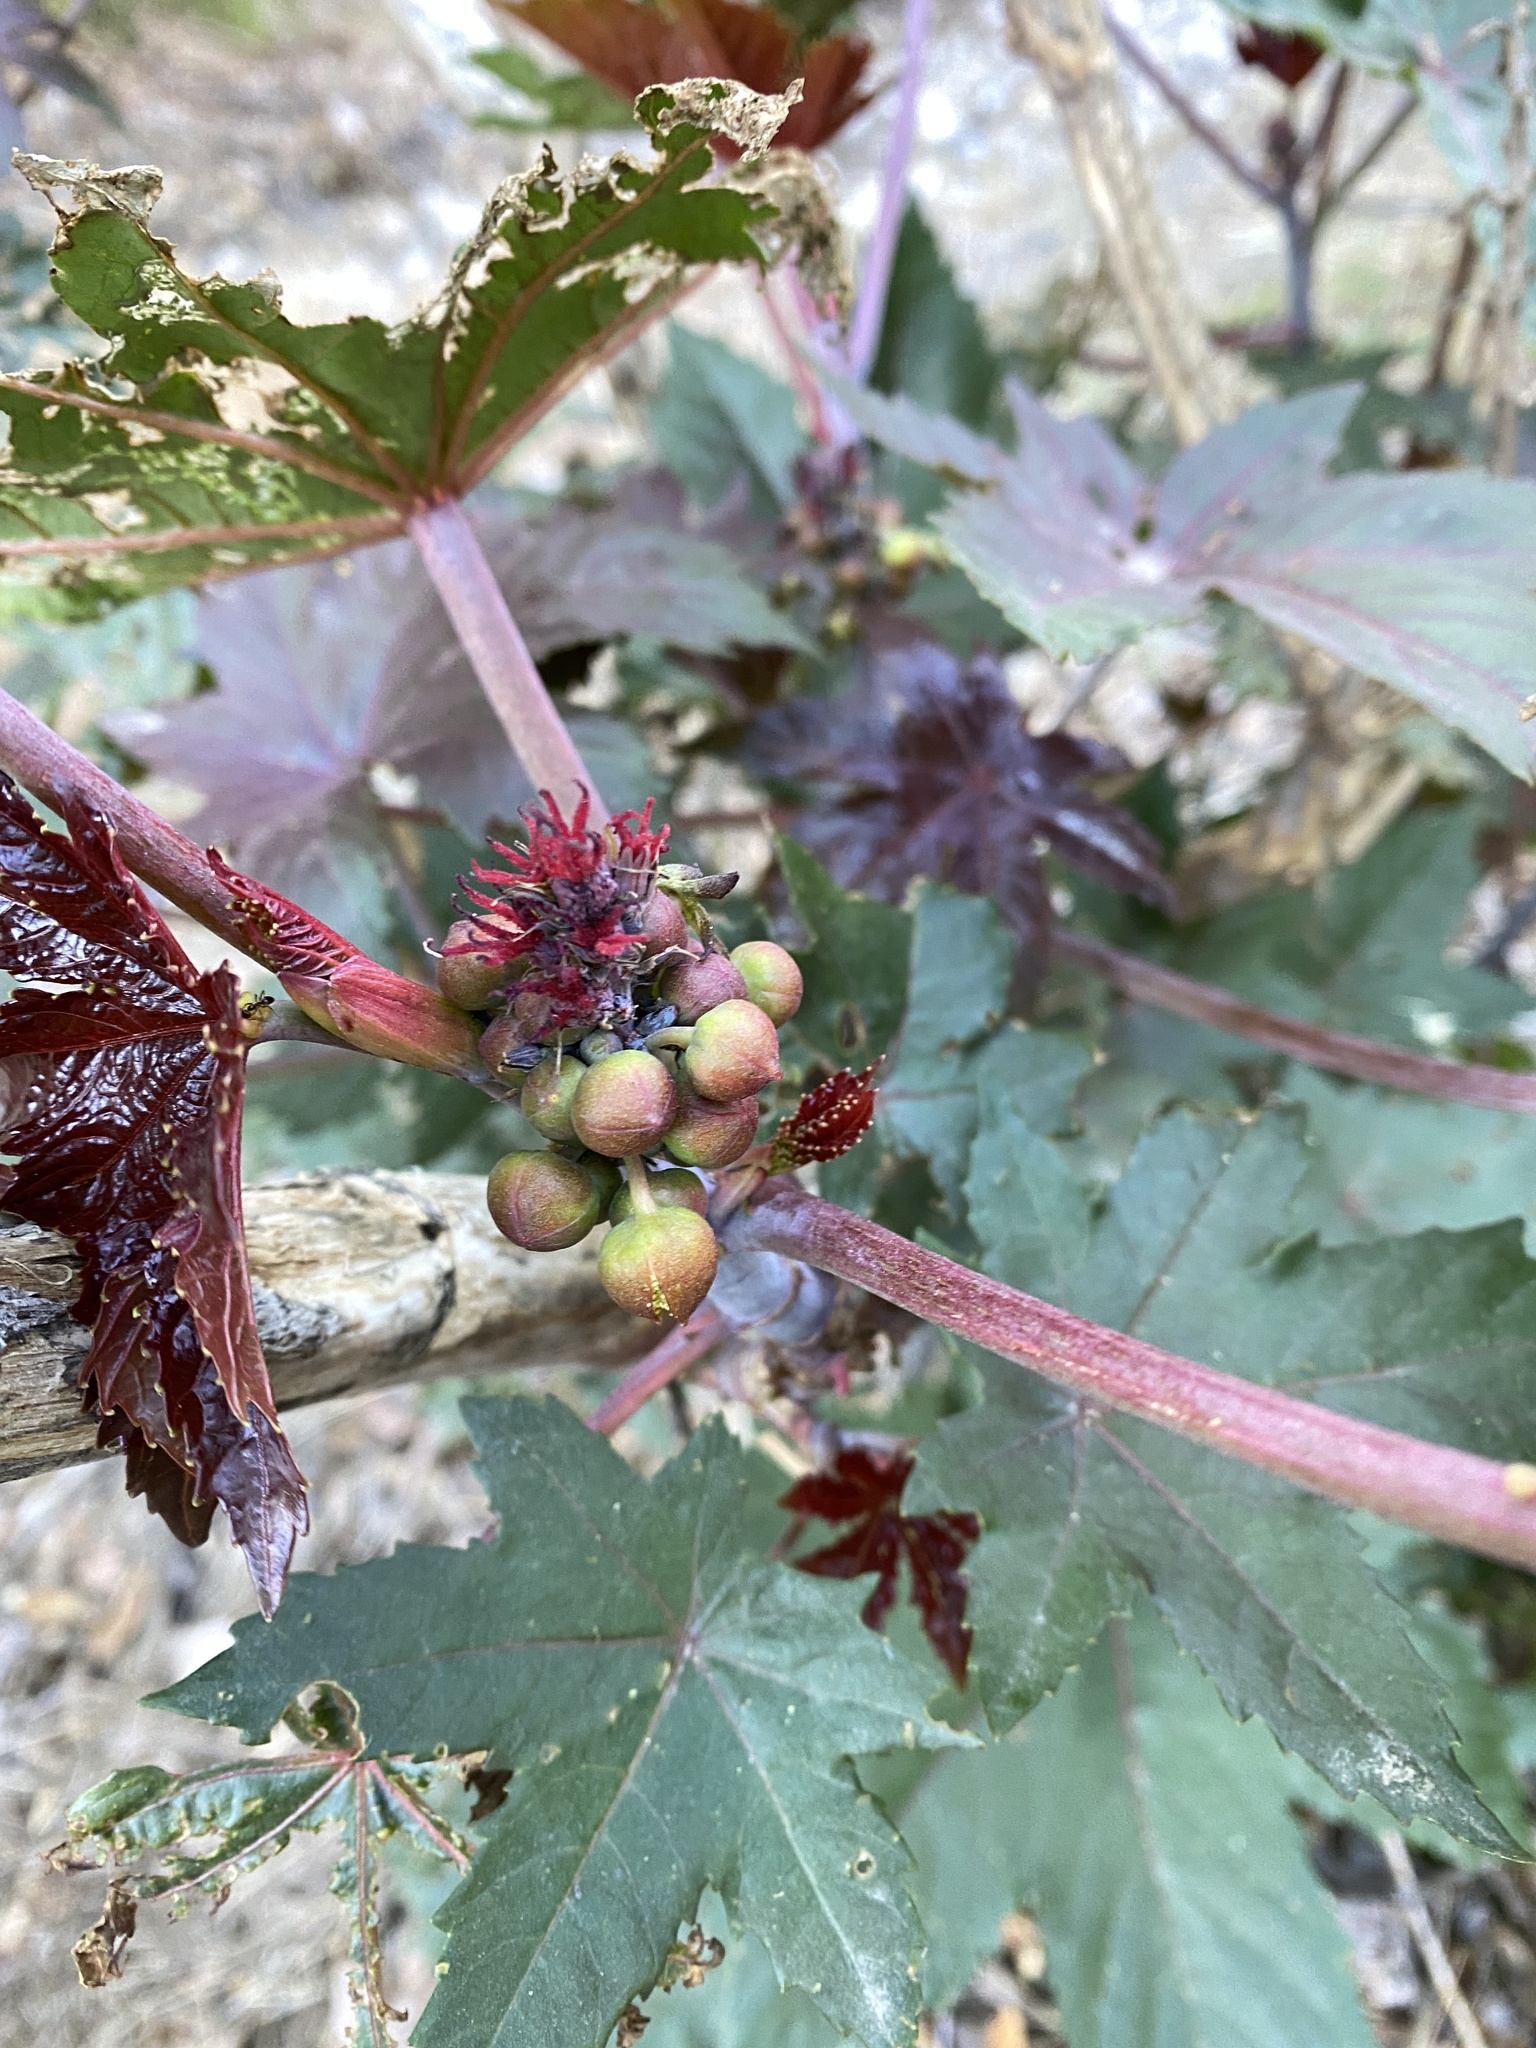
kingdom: Plantae
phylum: Tracheophyta
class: Magnoliopsida
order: Malpighiales
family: Euphorbiaceae
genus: Ricinus
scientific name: Ricinus communis
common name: Castor-oil-plant
